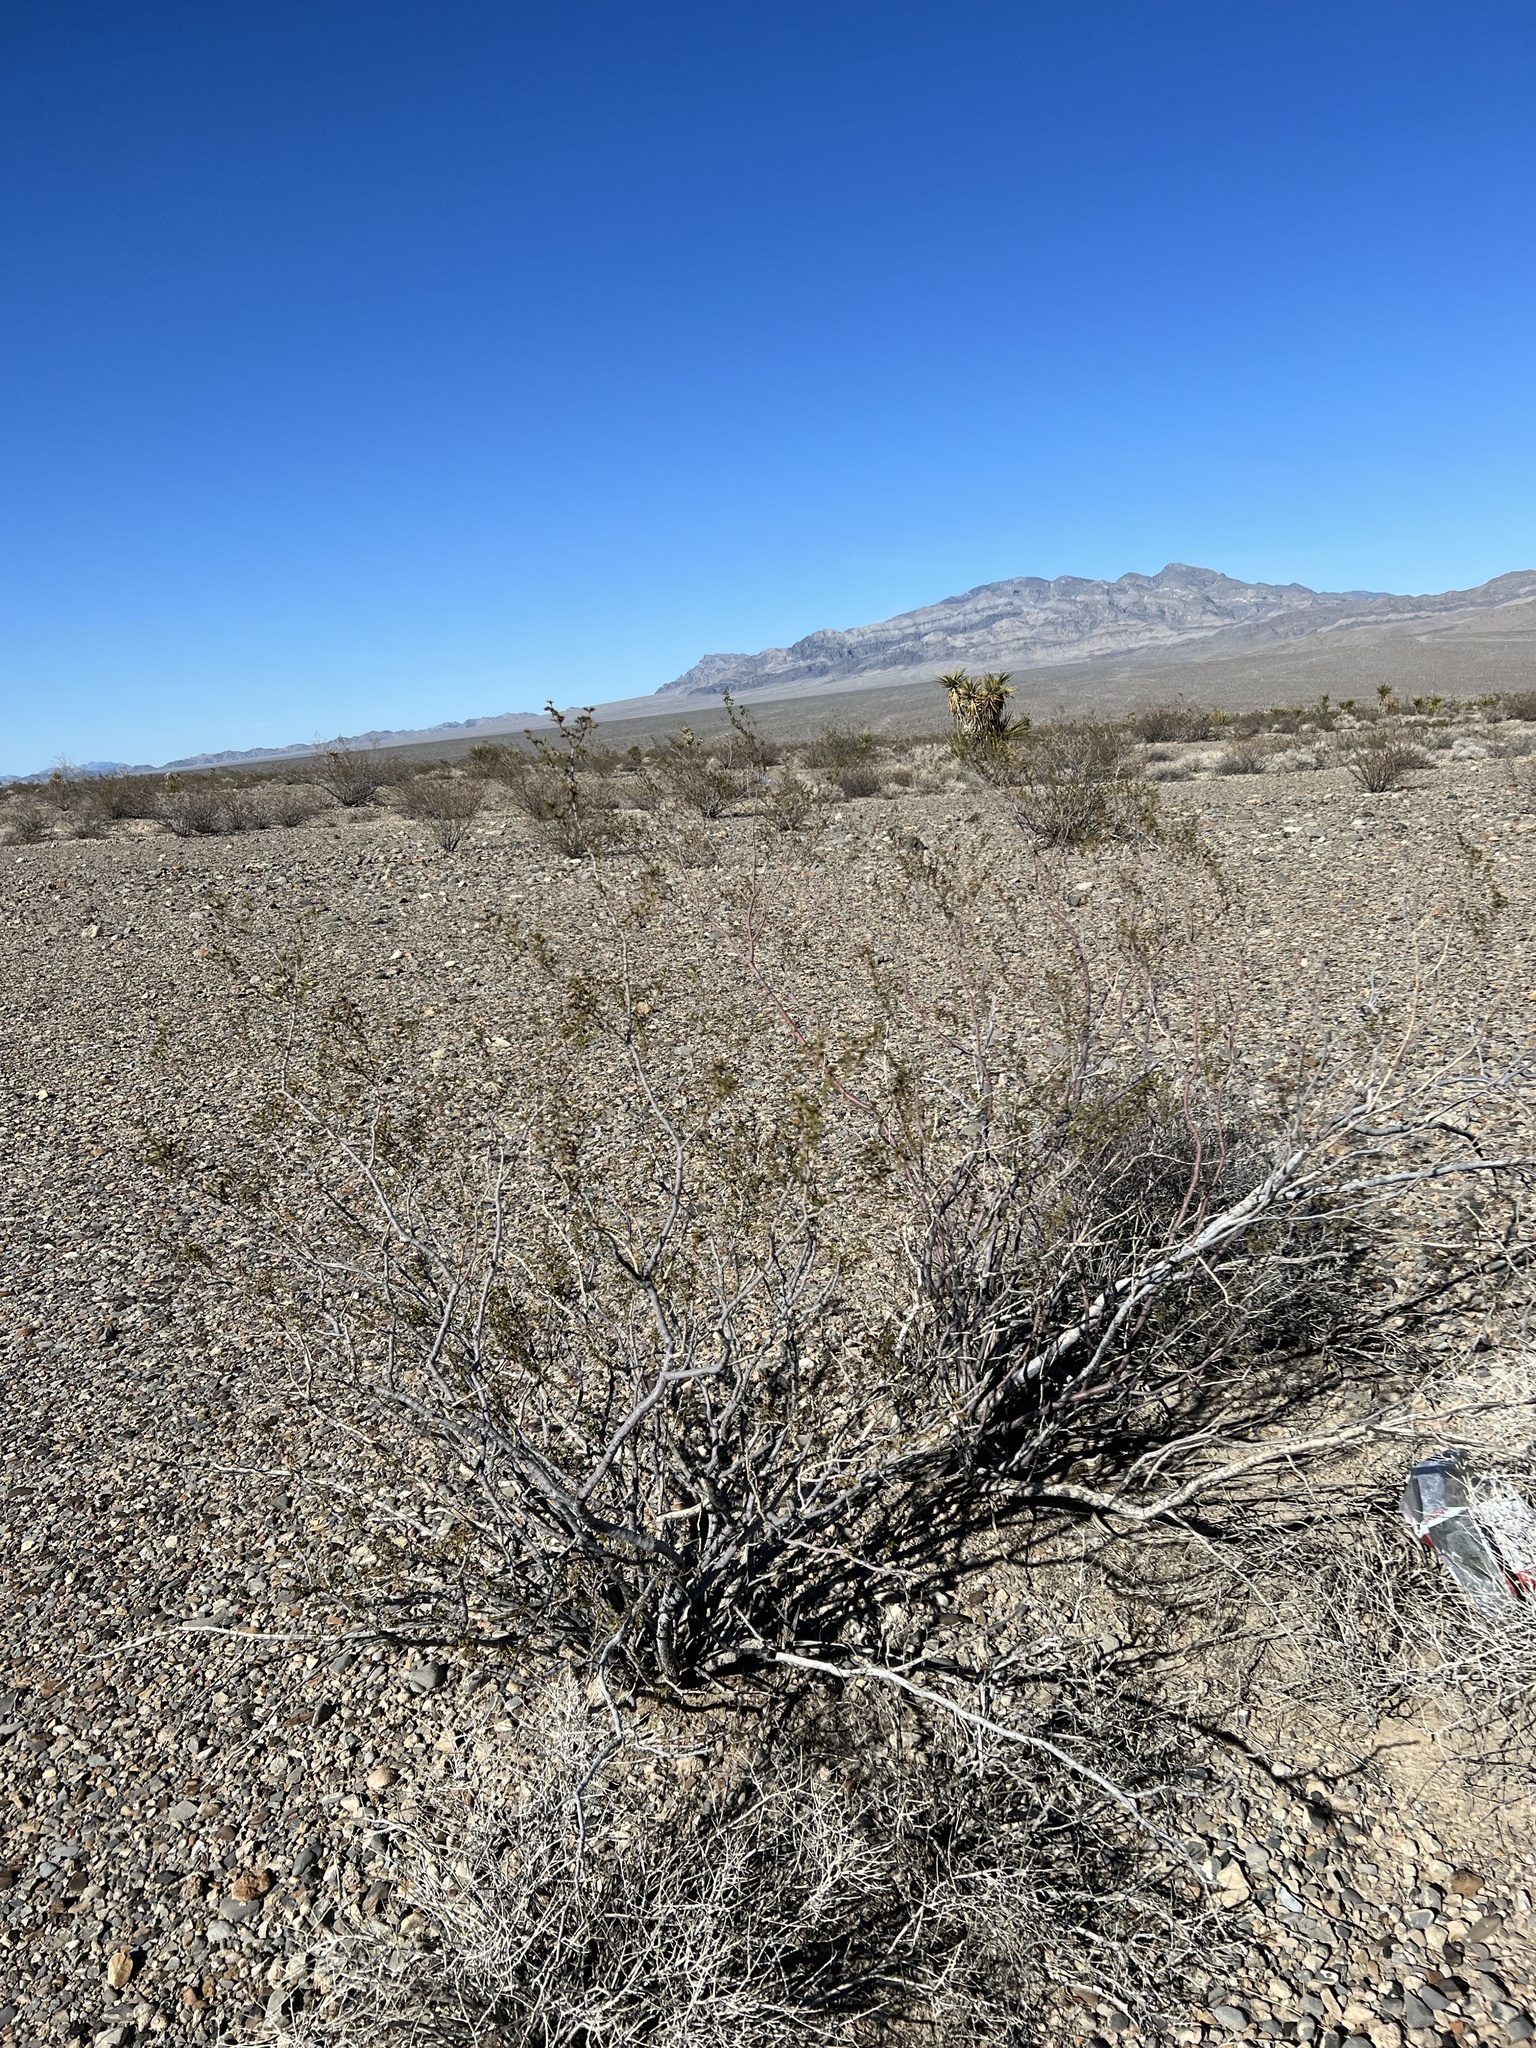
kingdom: Plantae
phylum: Tracheophyta
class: Magnoliopsida
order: Zygophyllales
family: Zygophyllaceae
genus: Larrea
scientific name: Larrea tridentata
